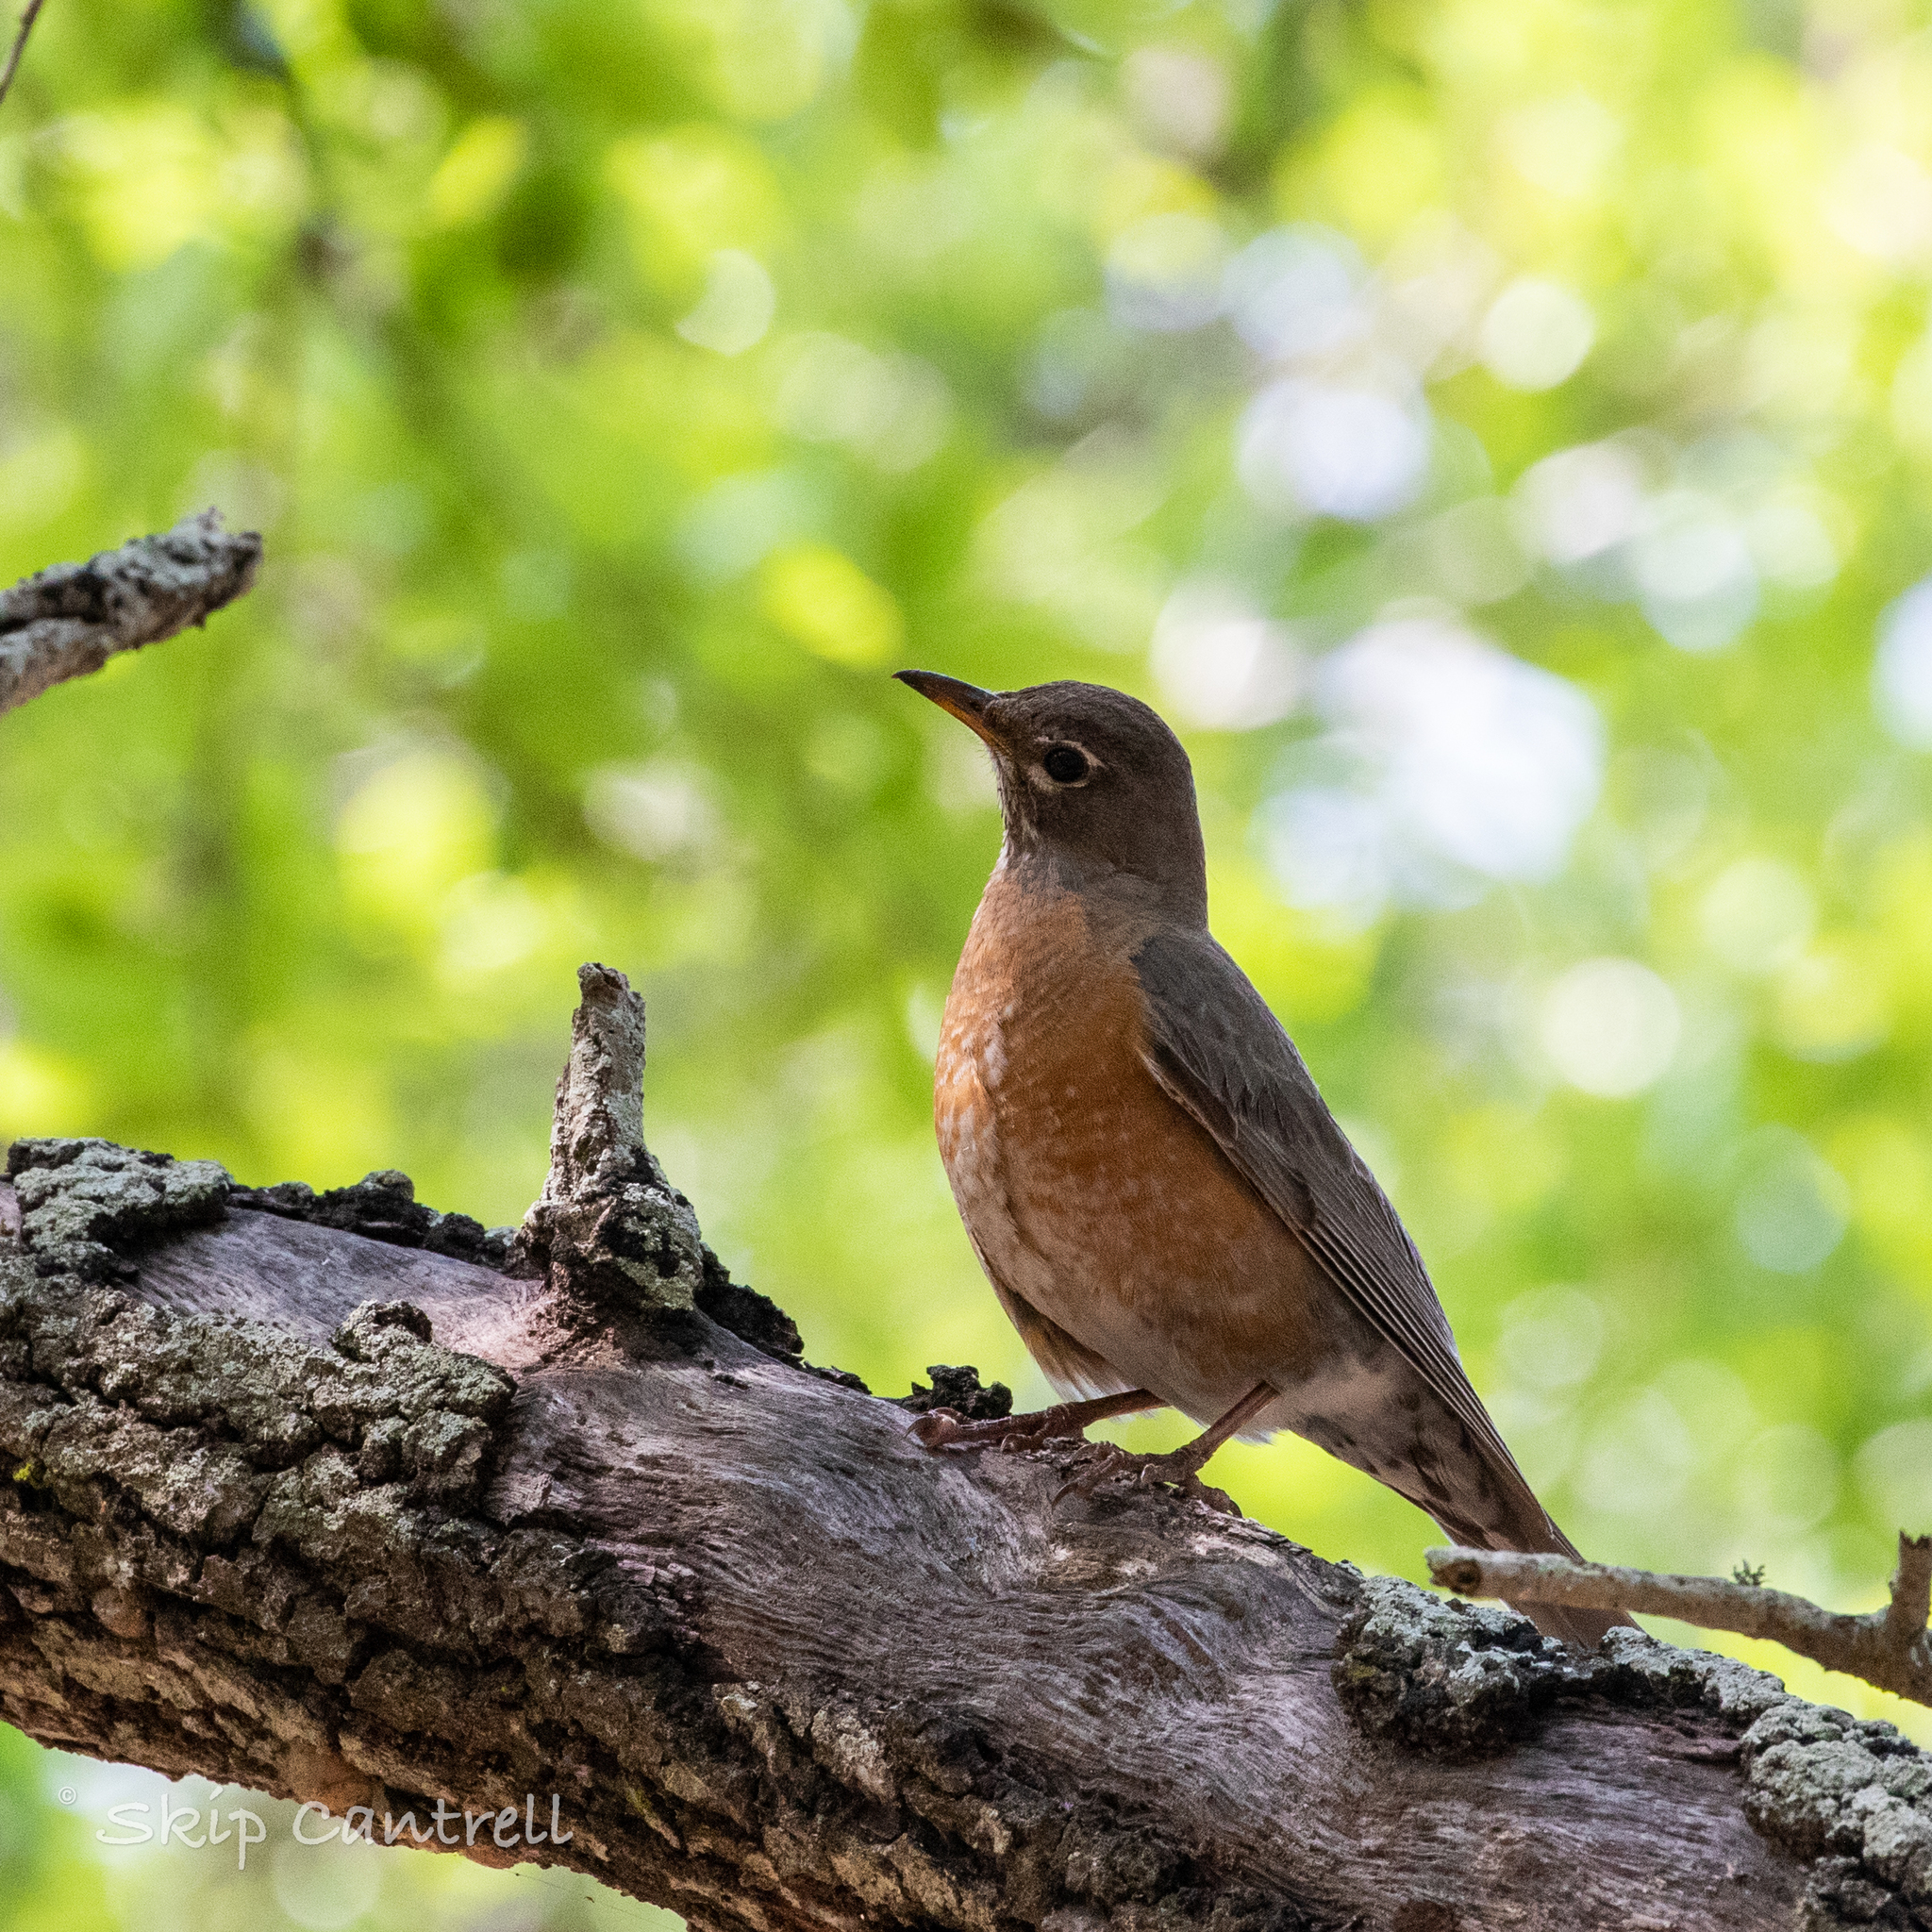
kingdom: Animalia
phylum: Chordata
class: Aves
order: Passeriformes
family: Turdidae
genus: Turdus
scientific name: Turdus migratorius
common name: American robin
